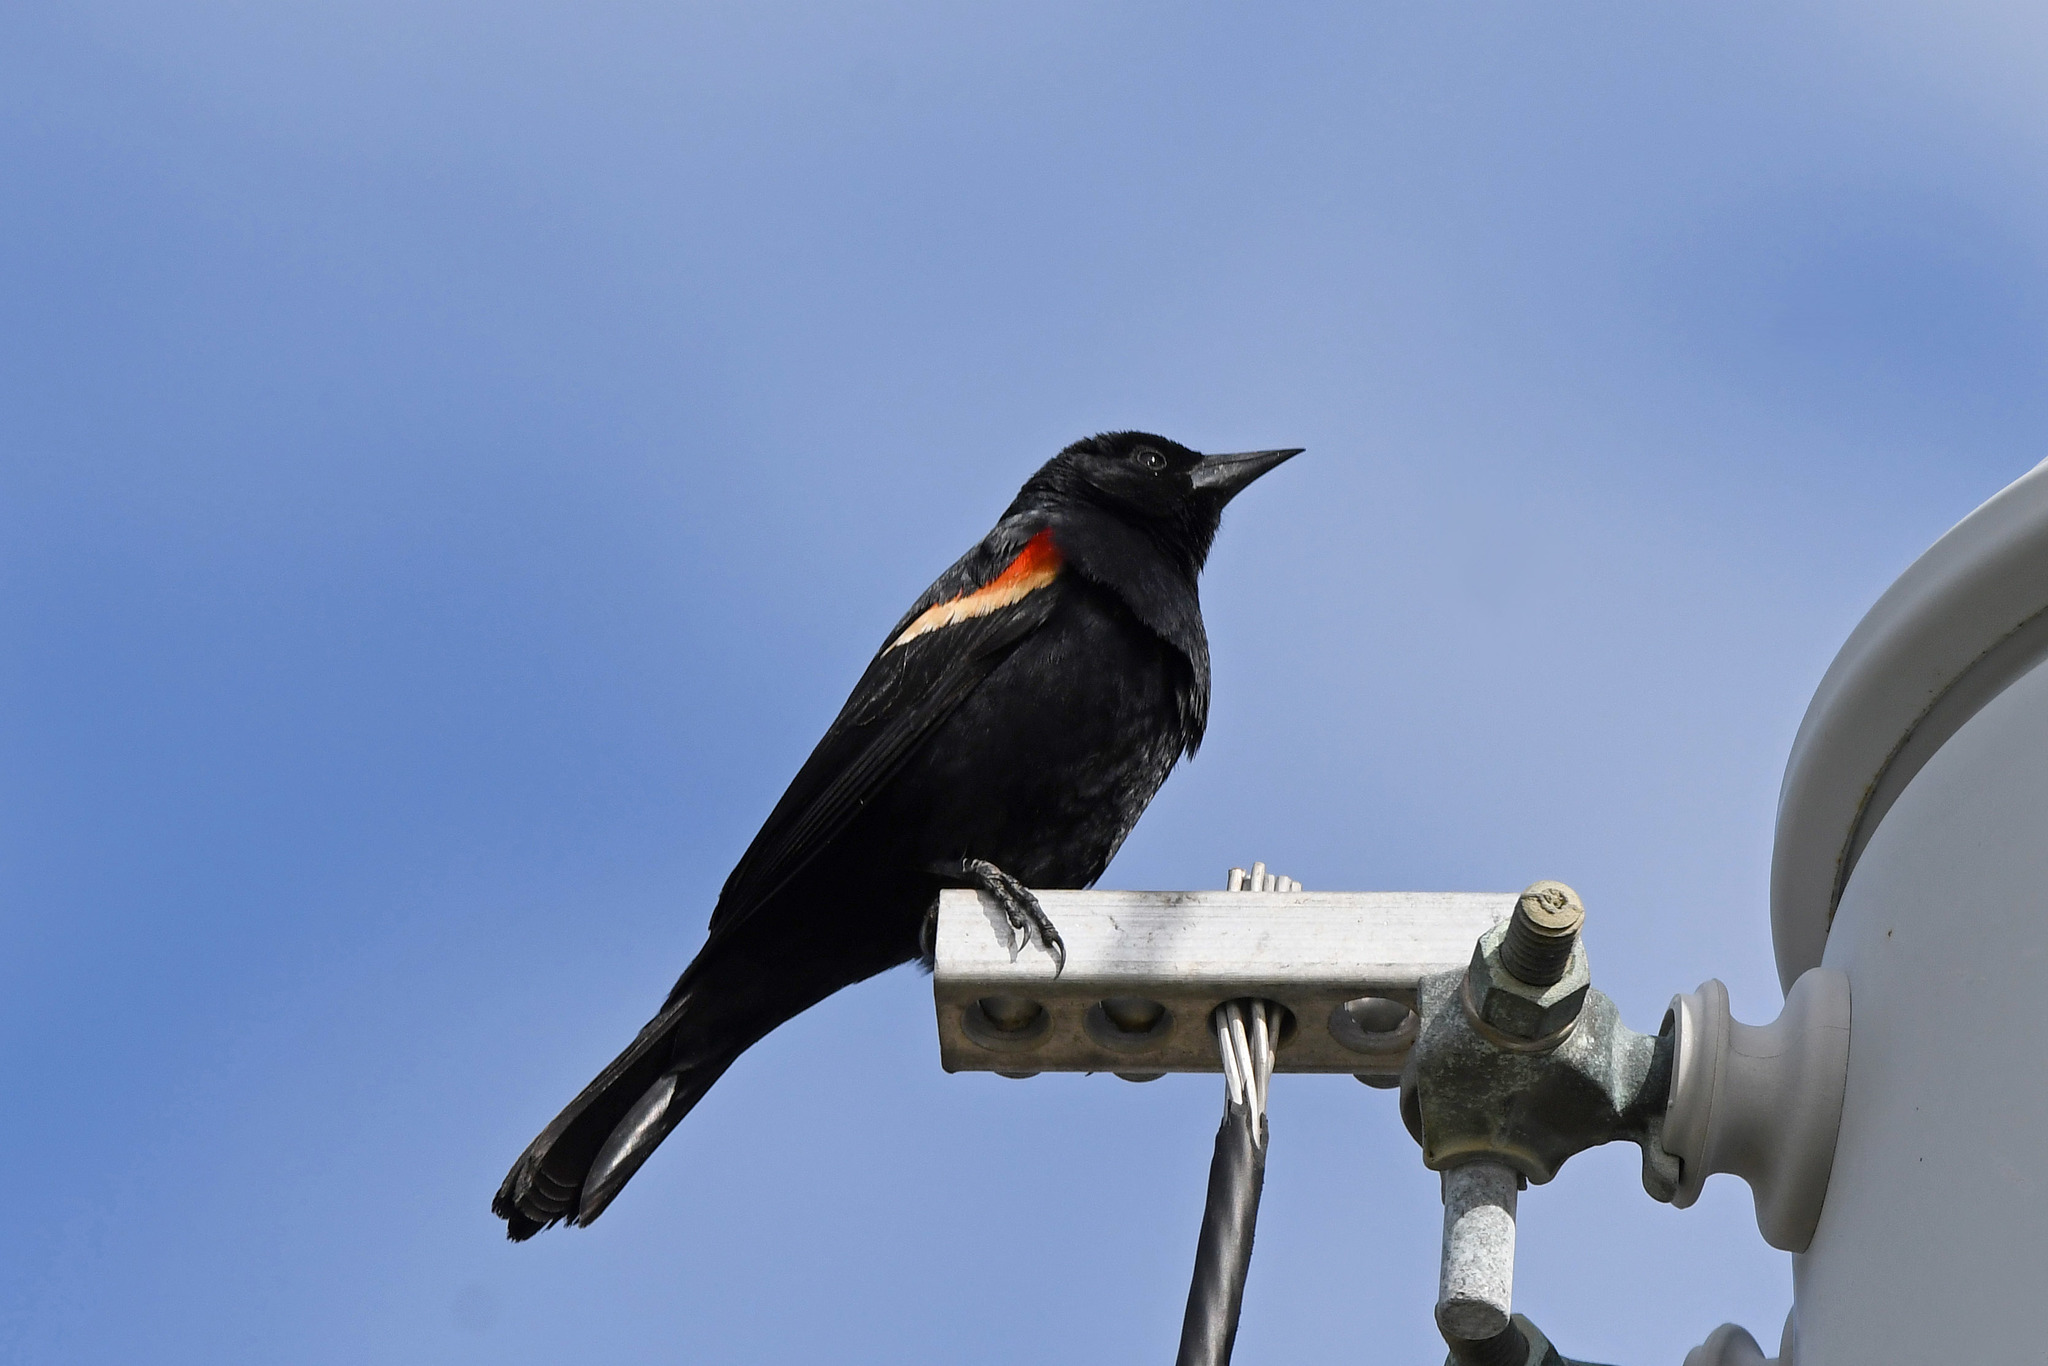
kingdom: Animalia
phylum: Chordata
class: Aves
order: Passeriformes
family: Icteridae
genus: Agelaius
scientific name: Agelaius phoeniceus
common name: Red-winged blackbird
